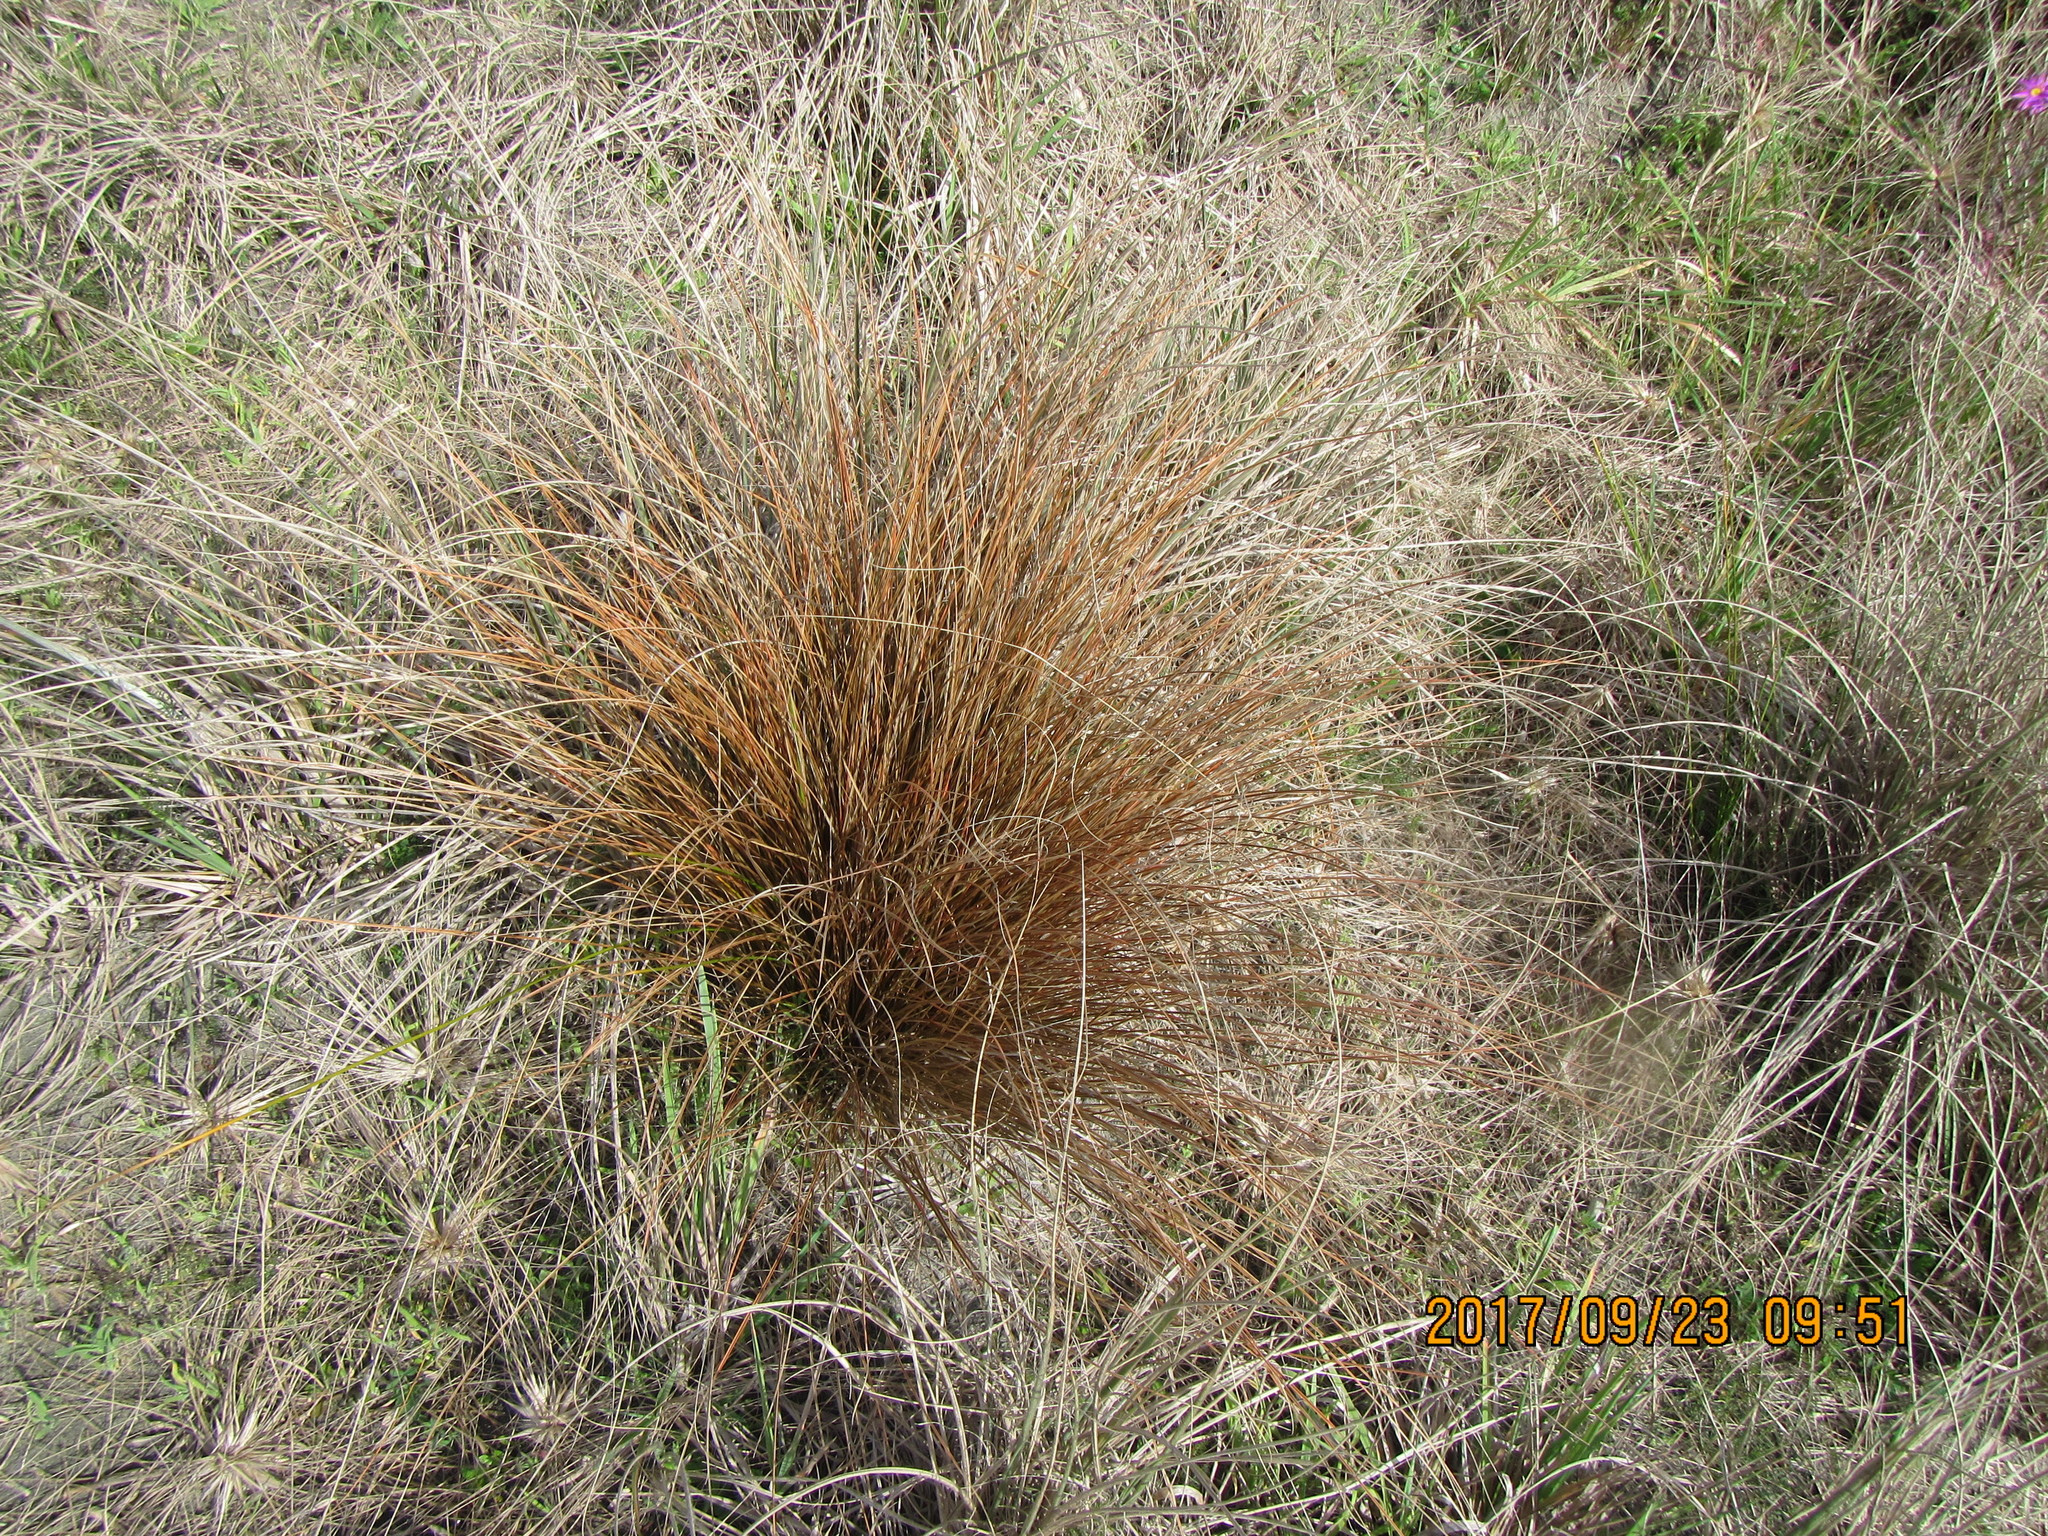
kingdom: Plantae
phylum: Tracheophyta
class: Liliopsida
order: Poales
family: Cyperaceae
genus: Carex
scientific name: Carex testacea
